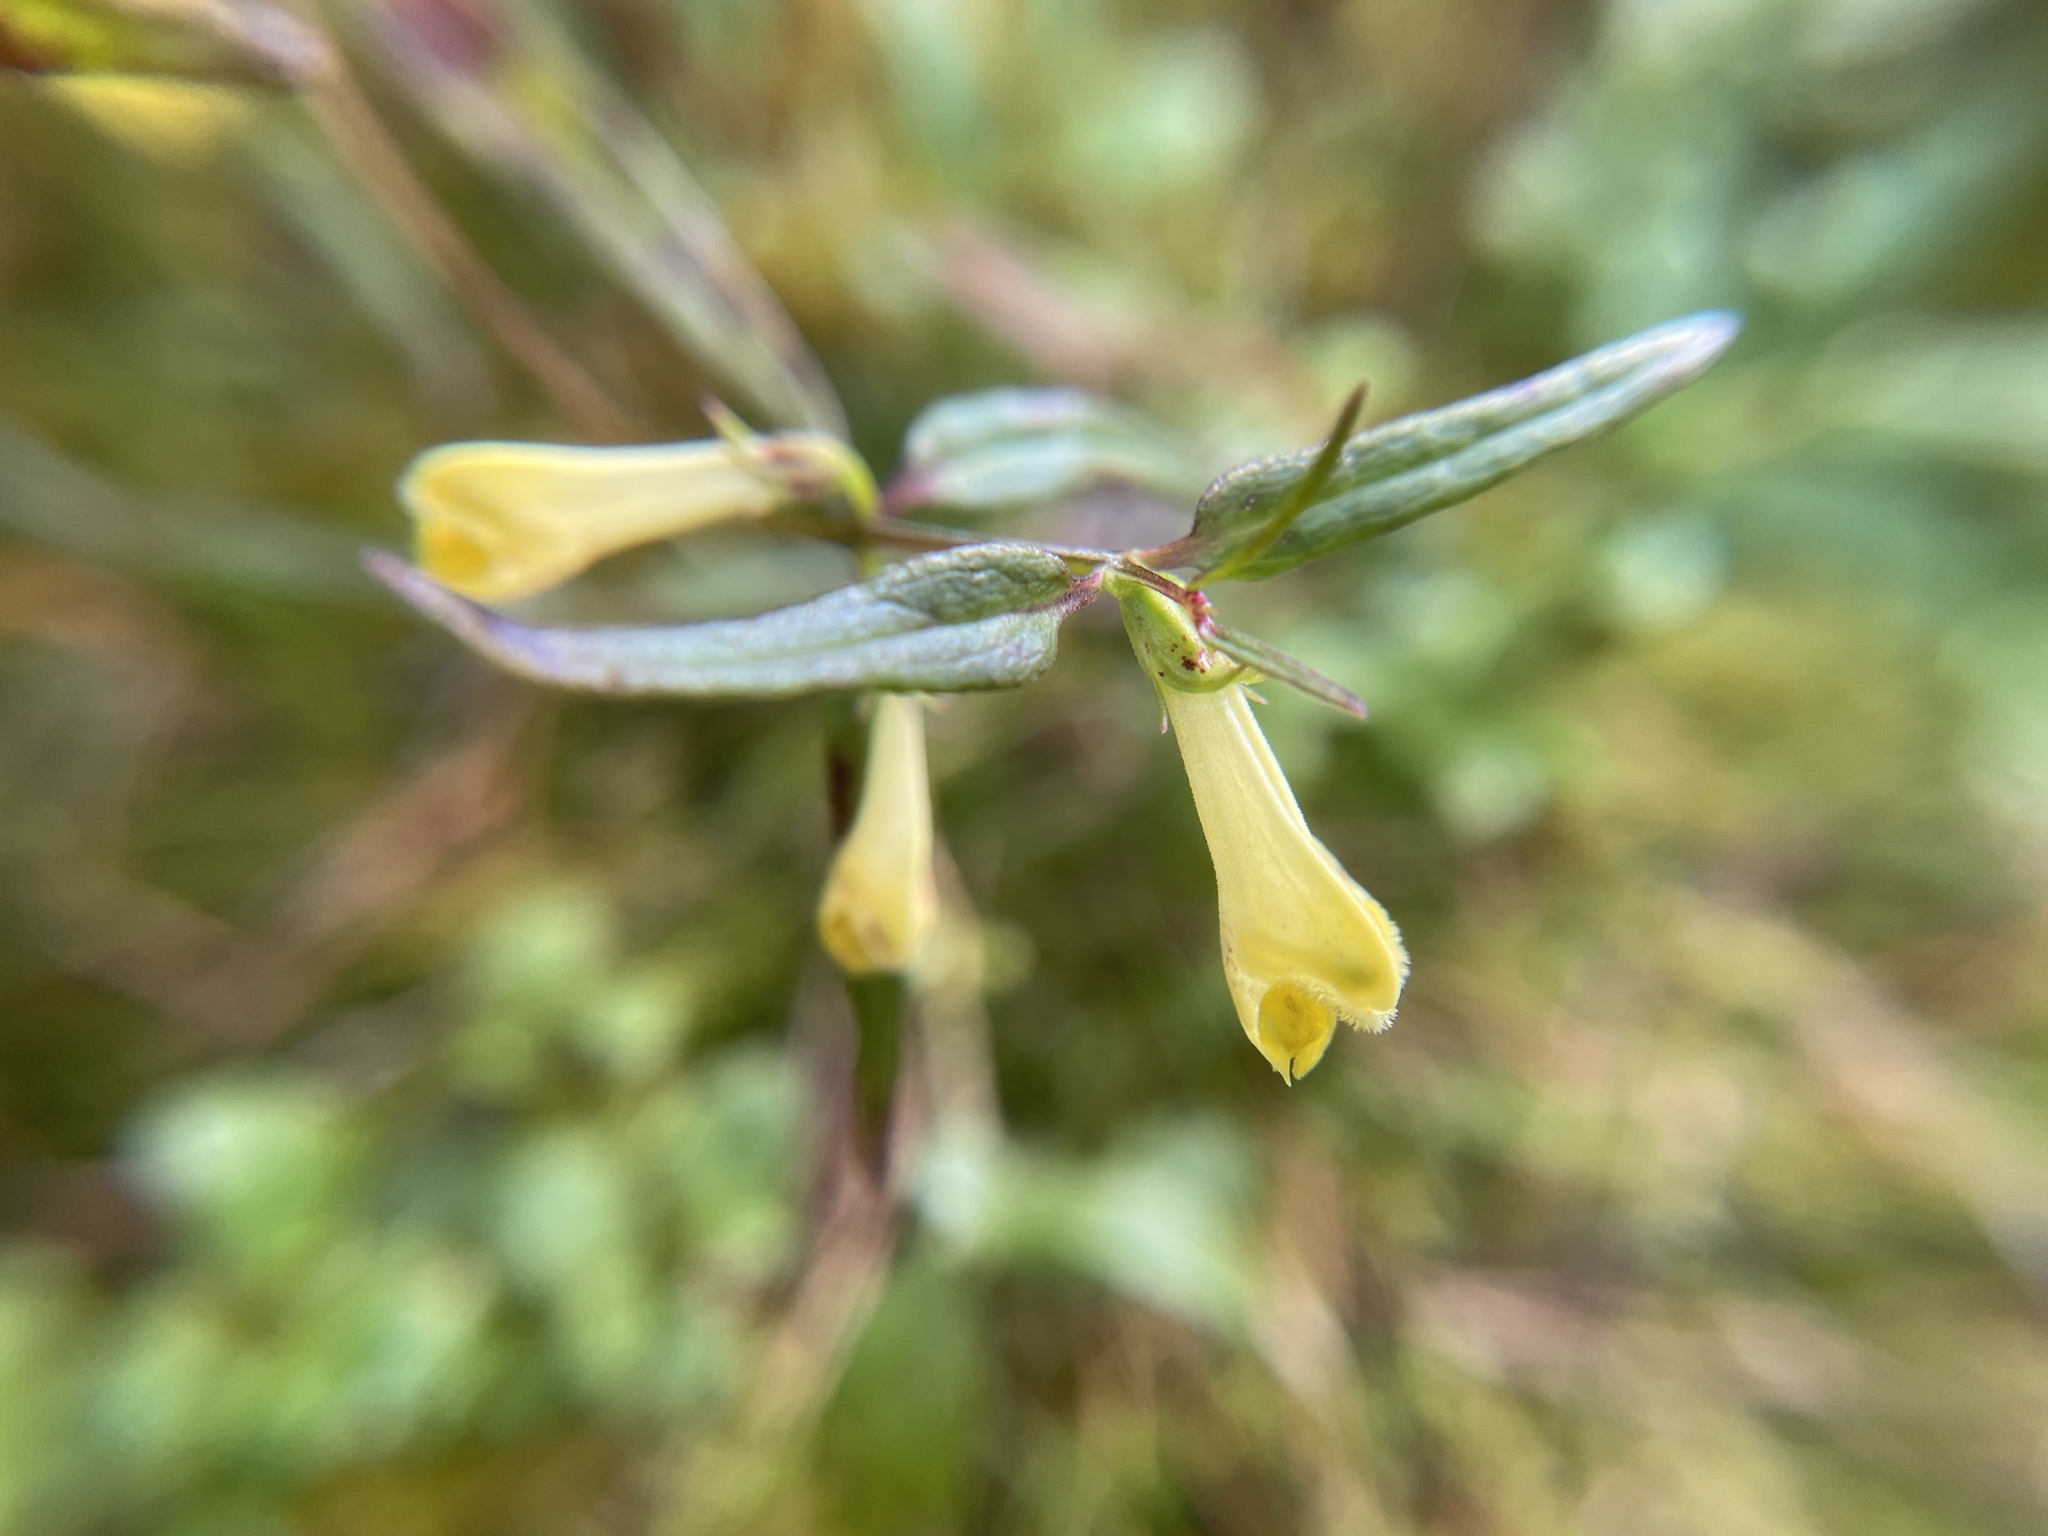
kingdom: Plantae
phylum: Tracheophyta
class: Magnoliopsida
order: Lamiales
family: Orobanchaceae
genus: Melampyrum
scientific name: Melampyrum pratense
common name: Common cow-wheat
